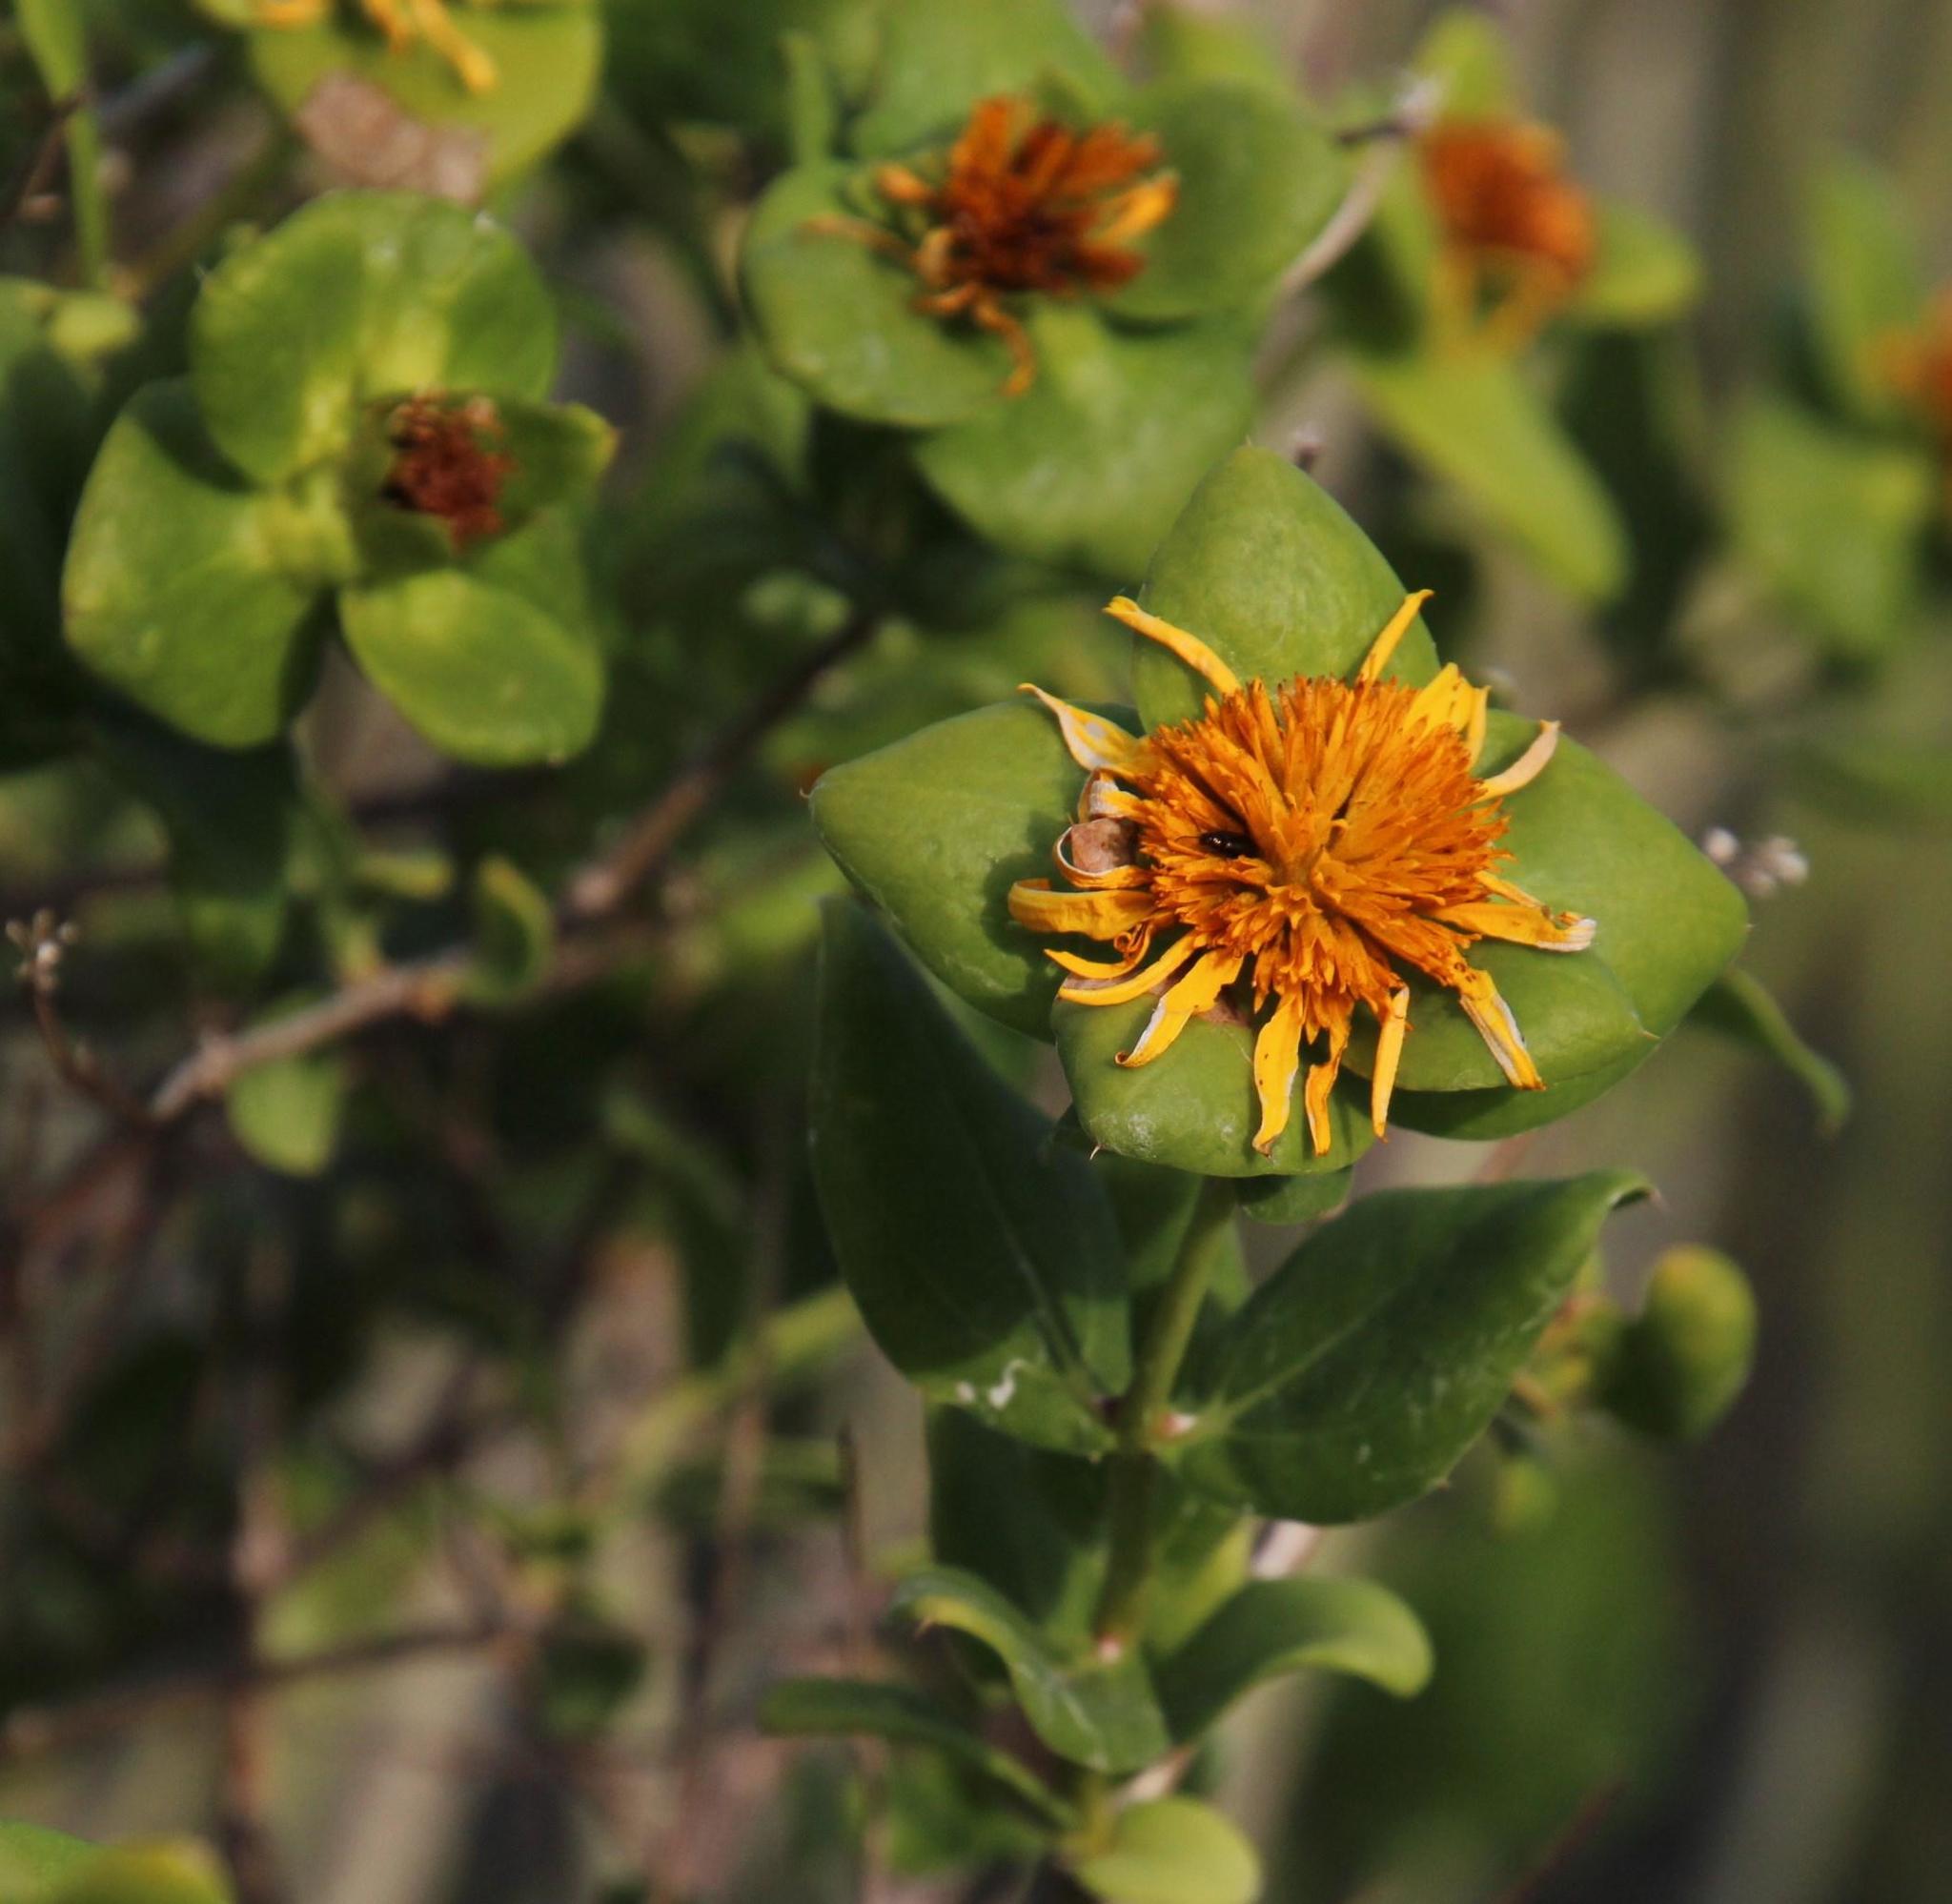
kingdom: Plantae
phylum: Tracheophyta
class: Magnoliopsida
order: Asterales
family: Asteraceae
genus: Didelta
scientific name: Didelta spinosa
